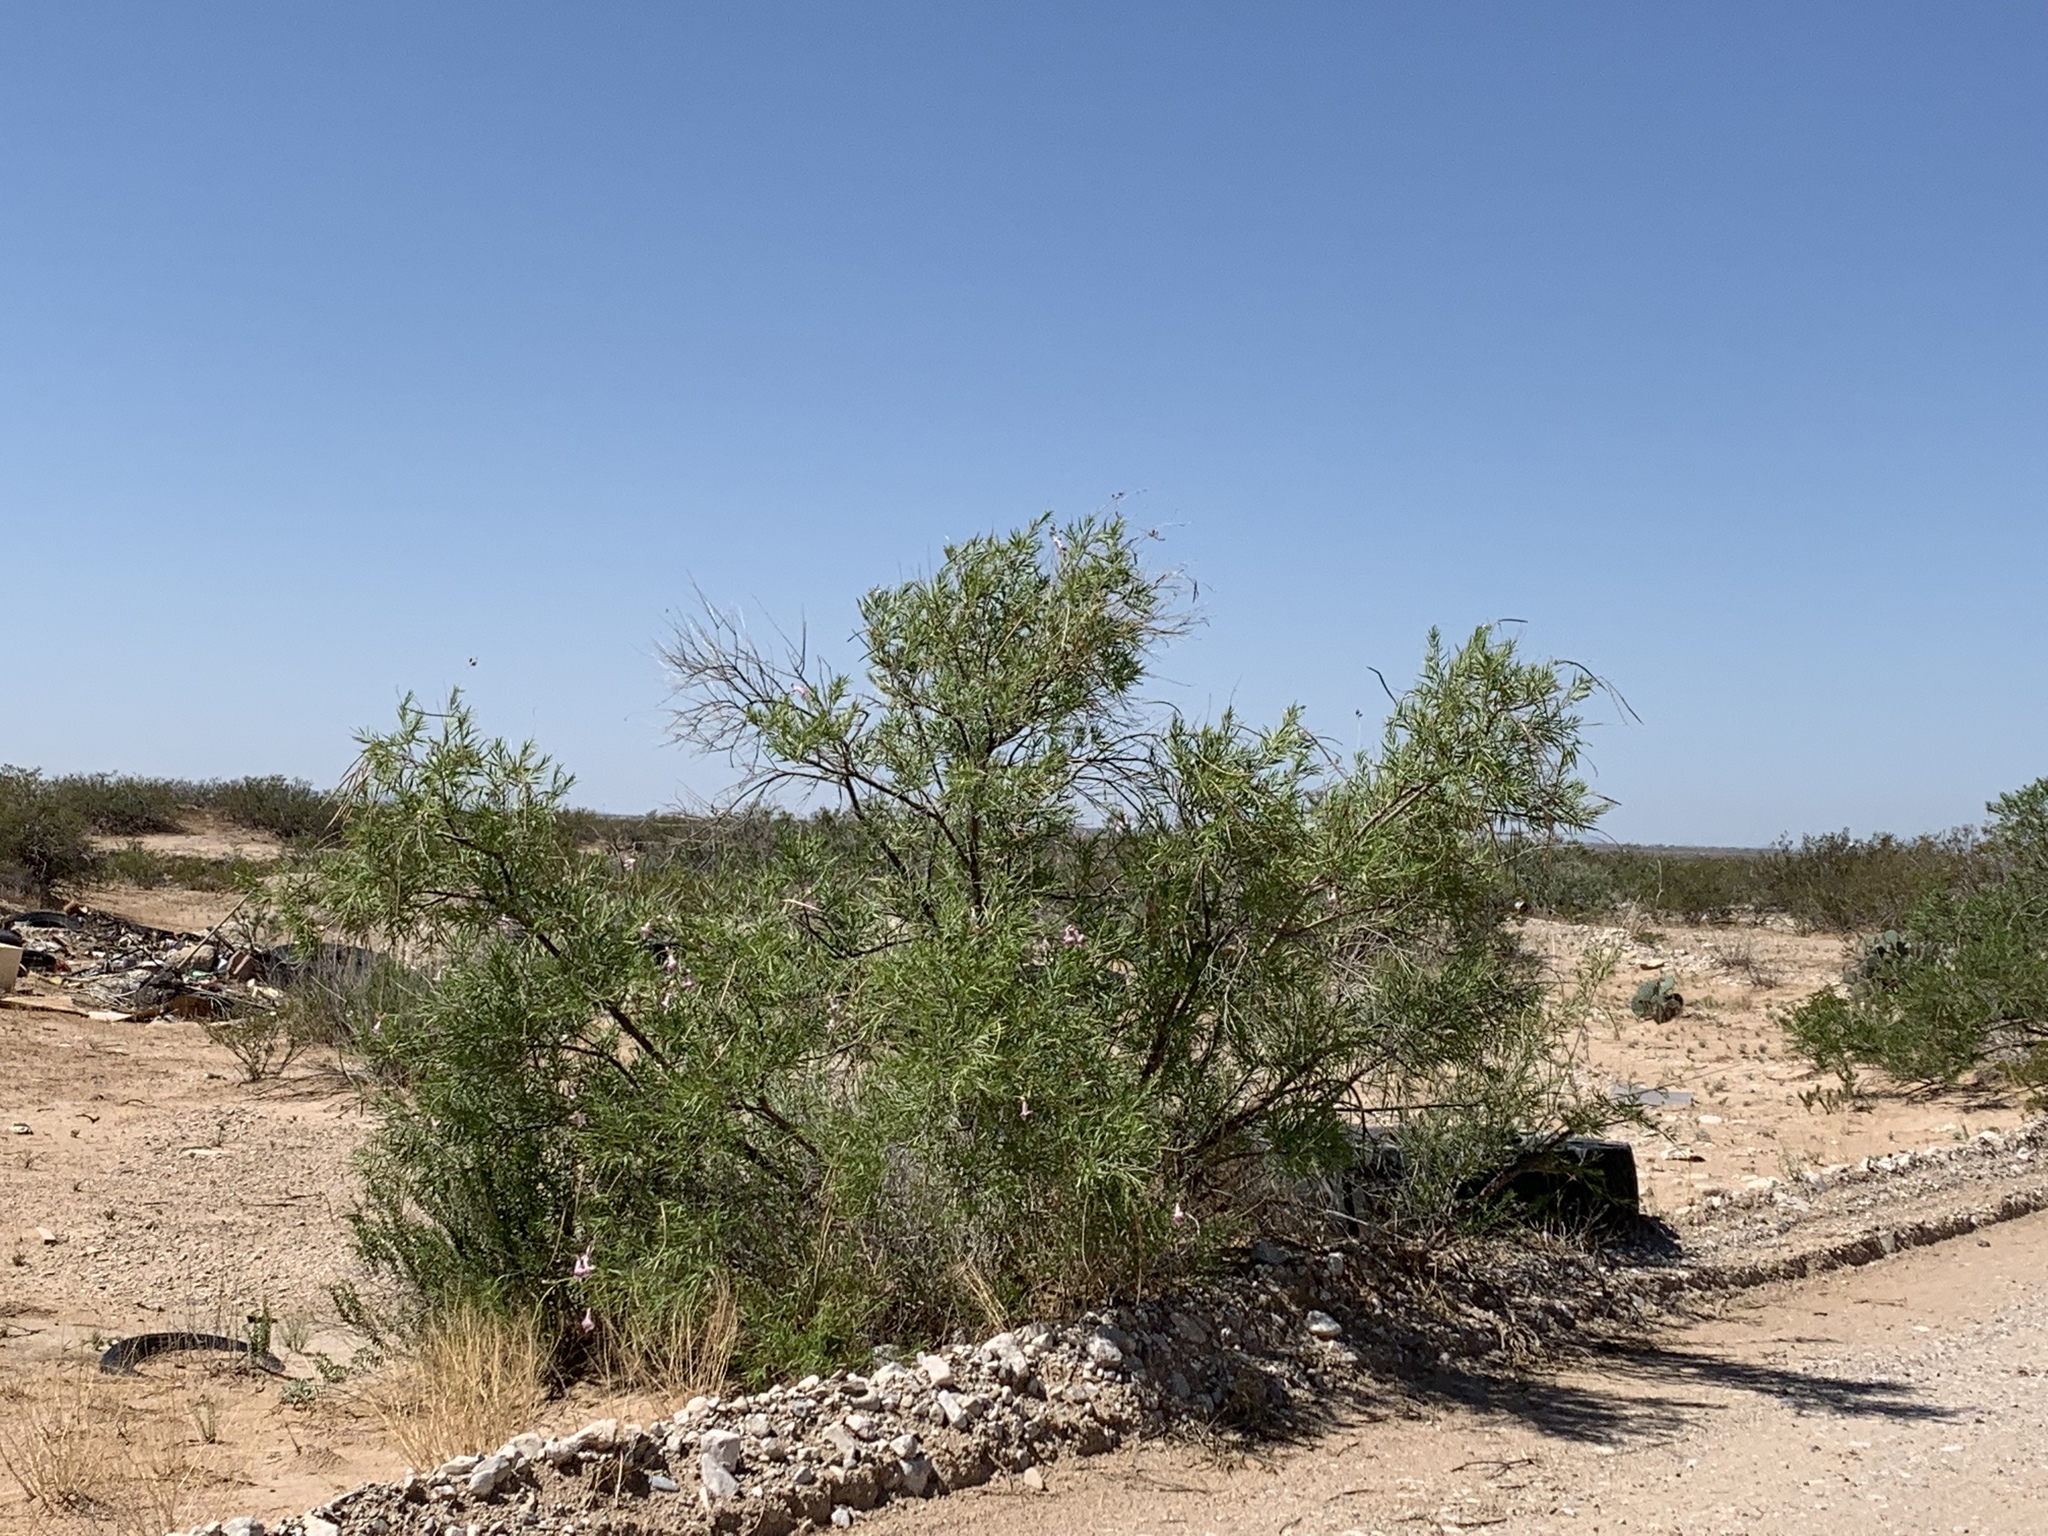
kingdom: Plantae
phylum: Tracheophyta
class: Magnoliopsida
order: Lamiales
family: Bignoniaceae
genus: Chilopsis
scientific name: Chilopsis linearis
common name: Desert-willow
